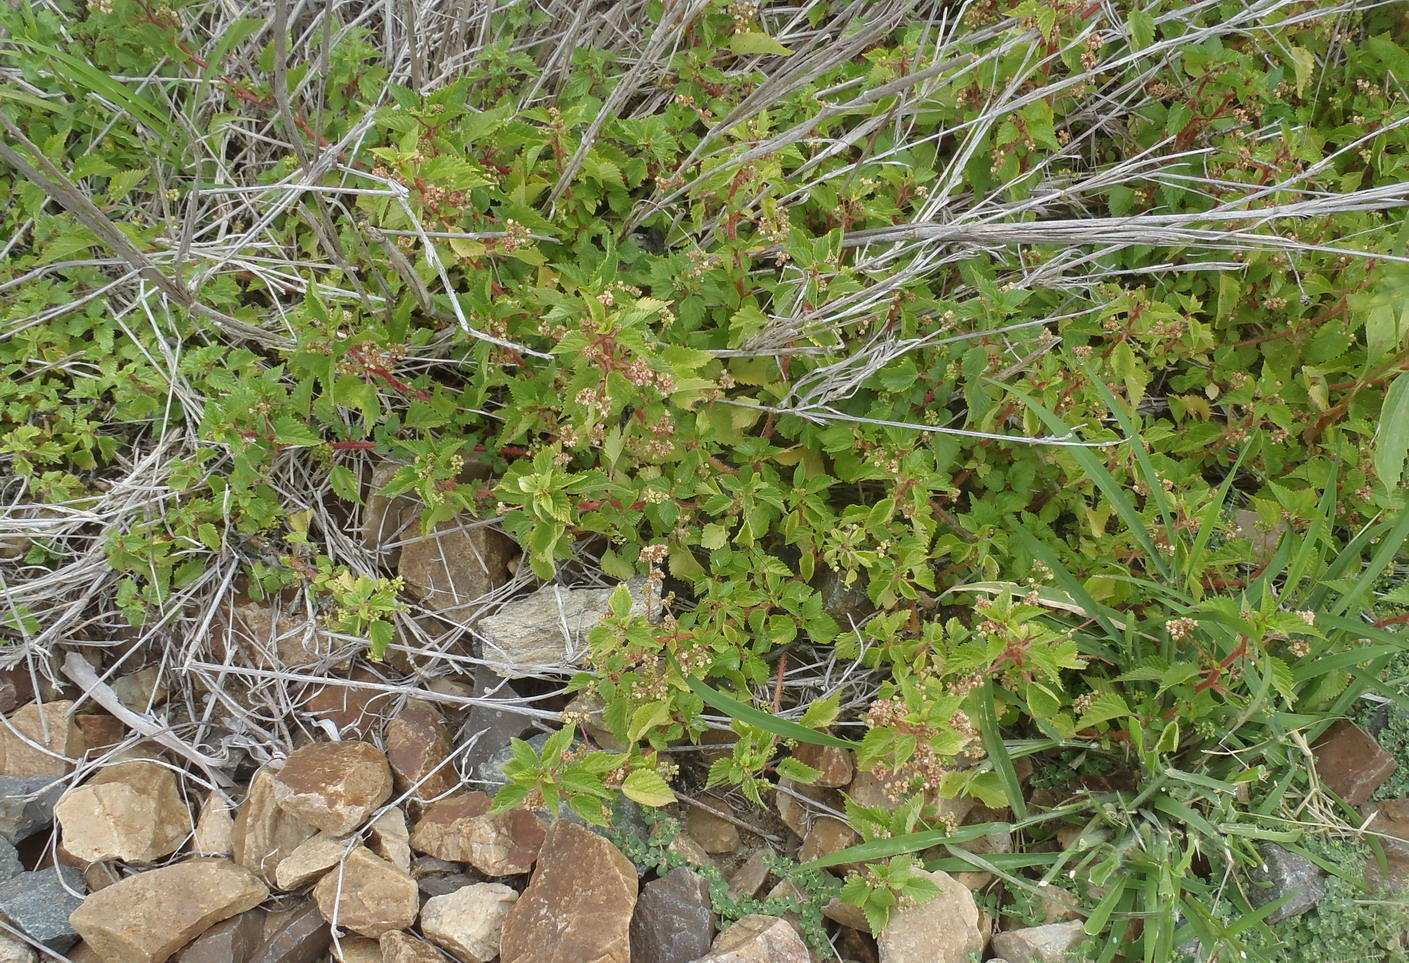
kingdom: Plantae
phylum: Tracheophyta
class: Magnoliopsida
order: Rosales
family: Urticaceae
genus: Laportea
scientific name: Laportea peduncularis
